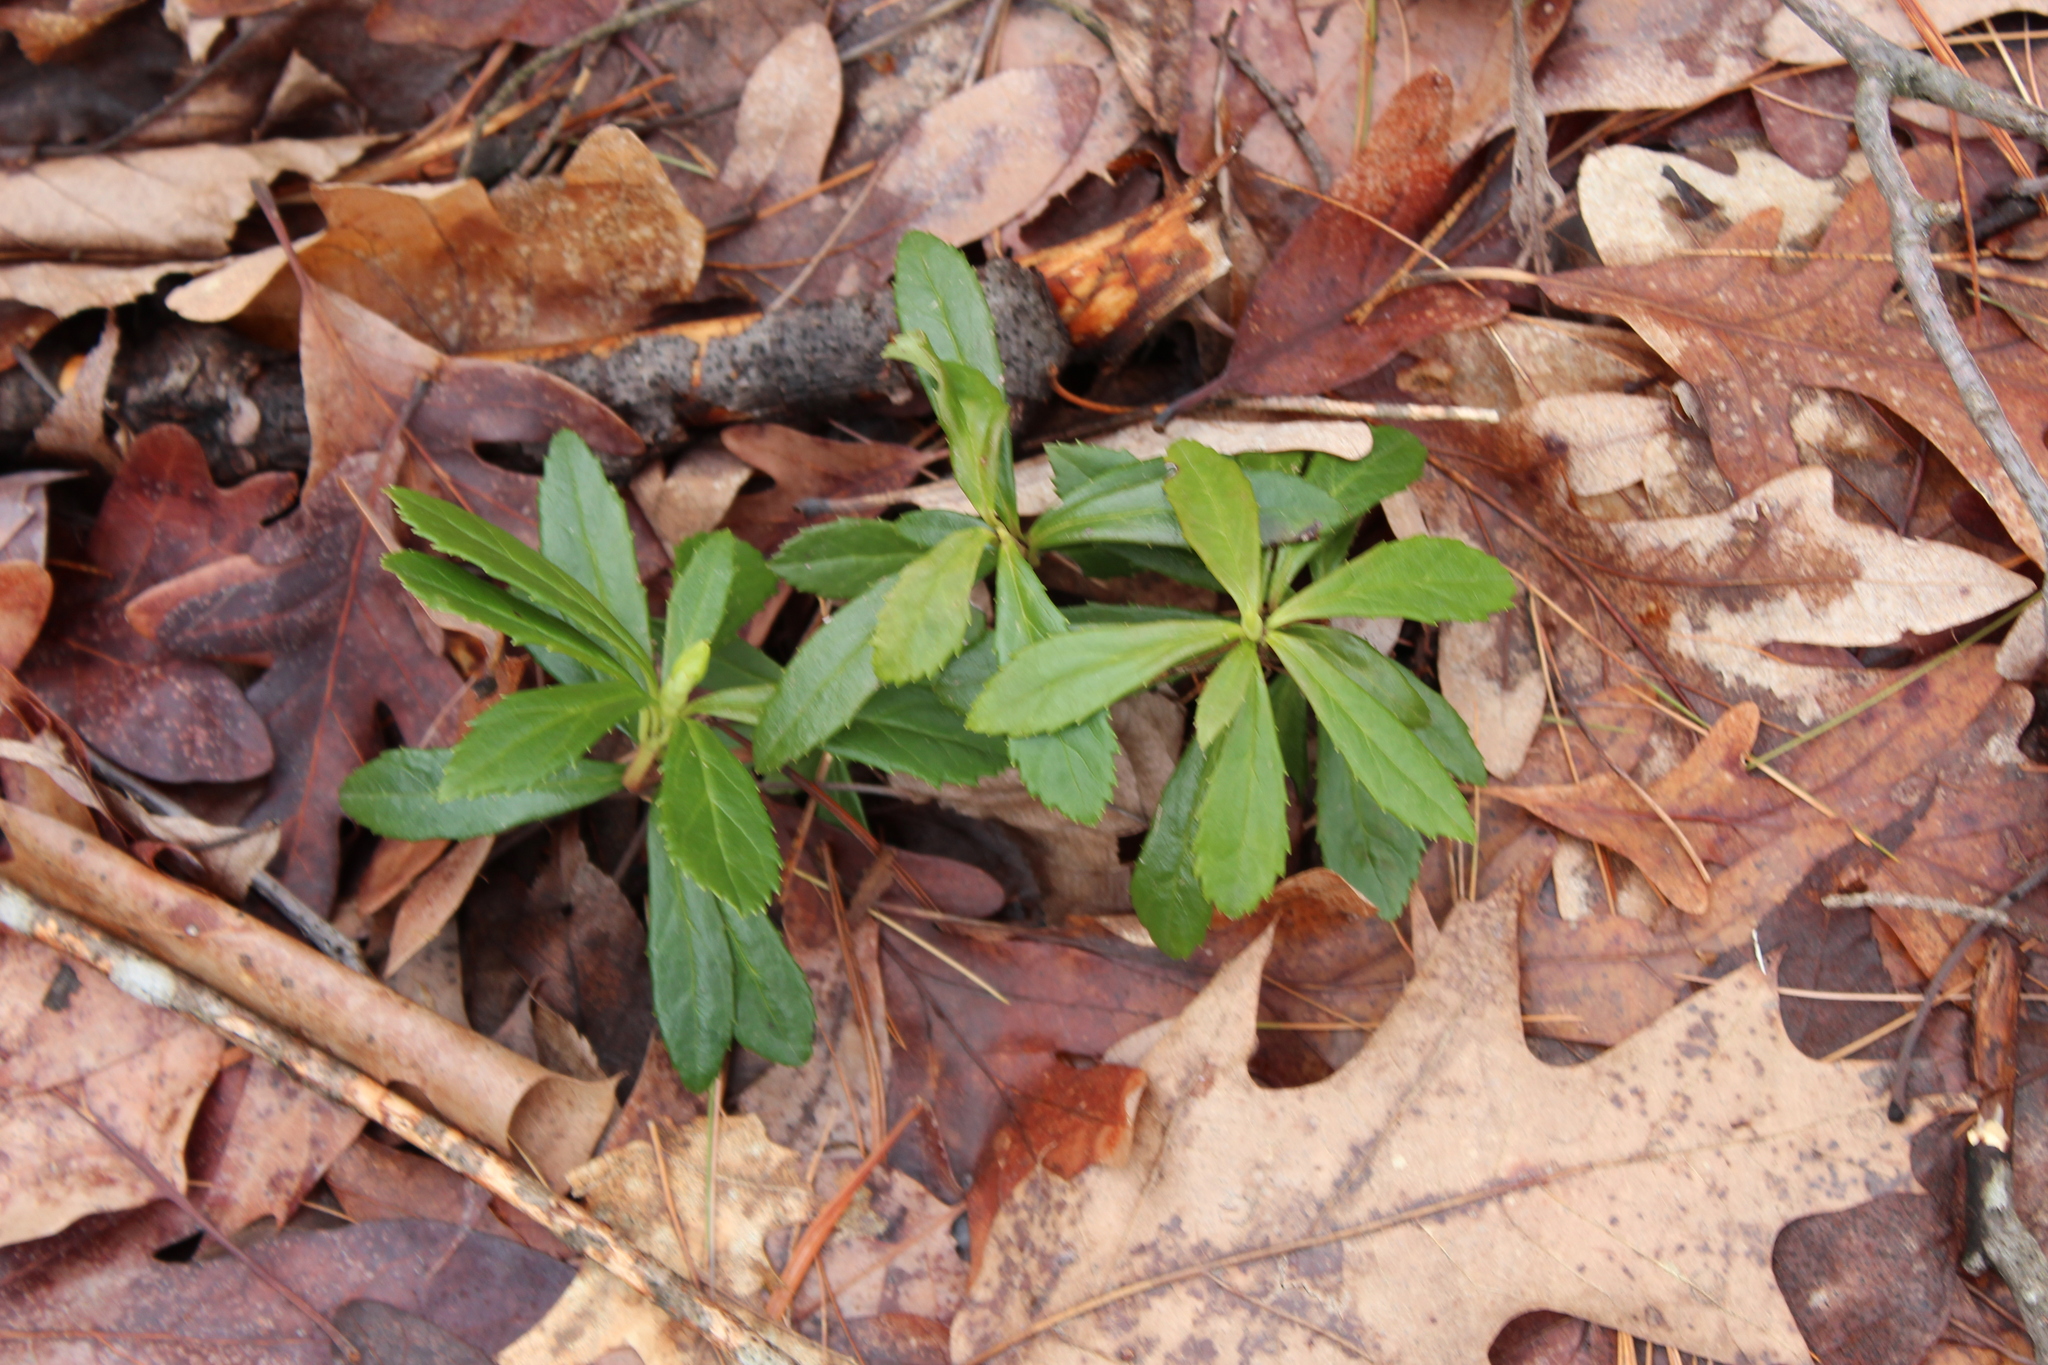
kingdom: Plantae
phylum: Tracheophyta
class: Magnoliopsida
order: Ericales
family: Ericaceae
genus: Chimaphila
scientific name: Chimaphila umbellata
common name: Pipsissewa
